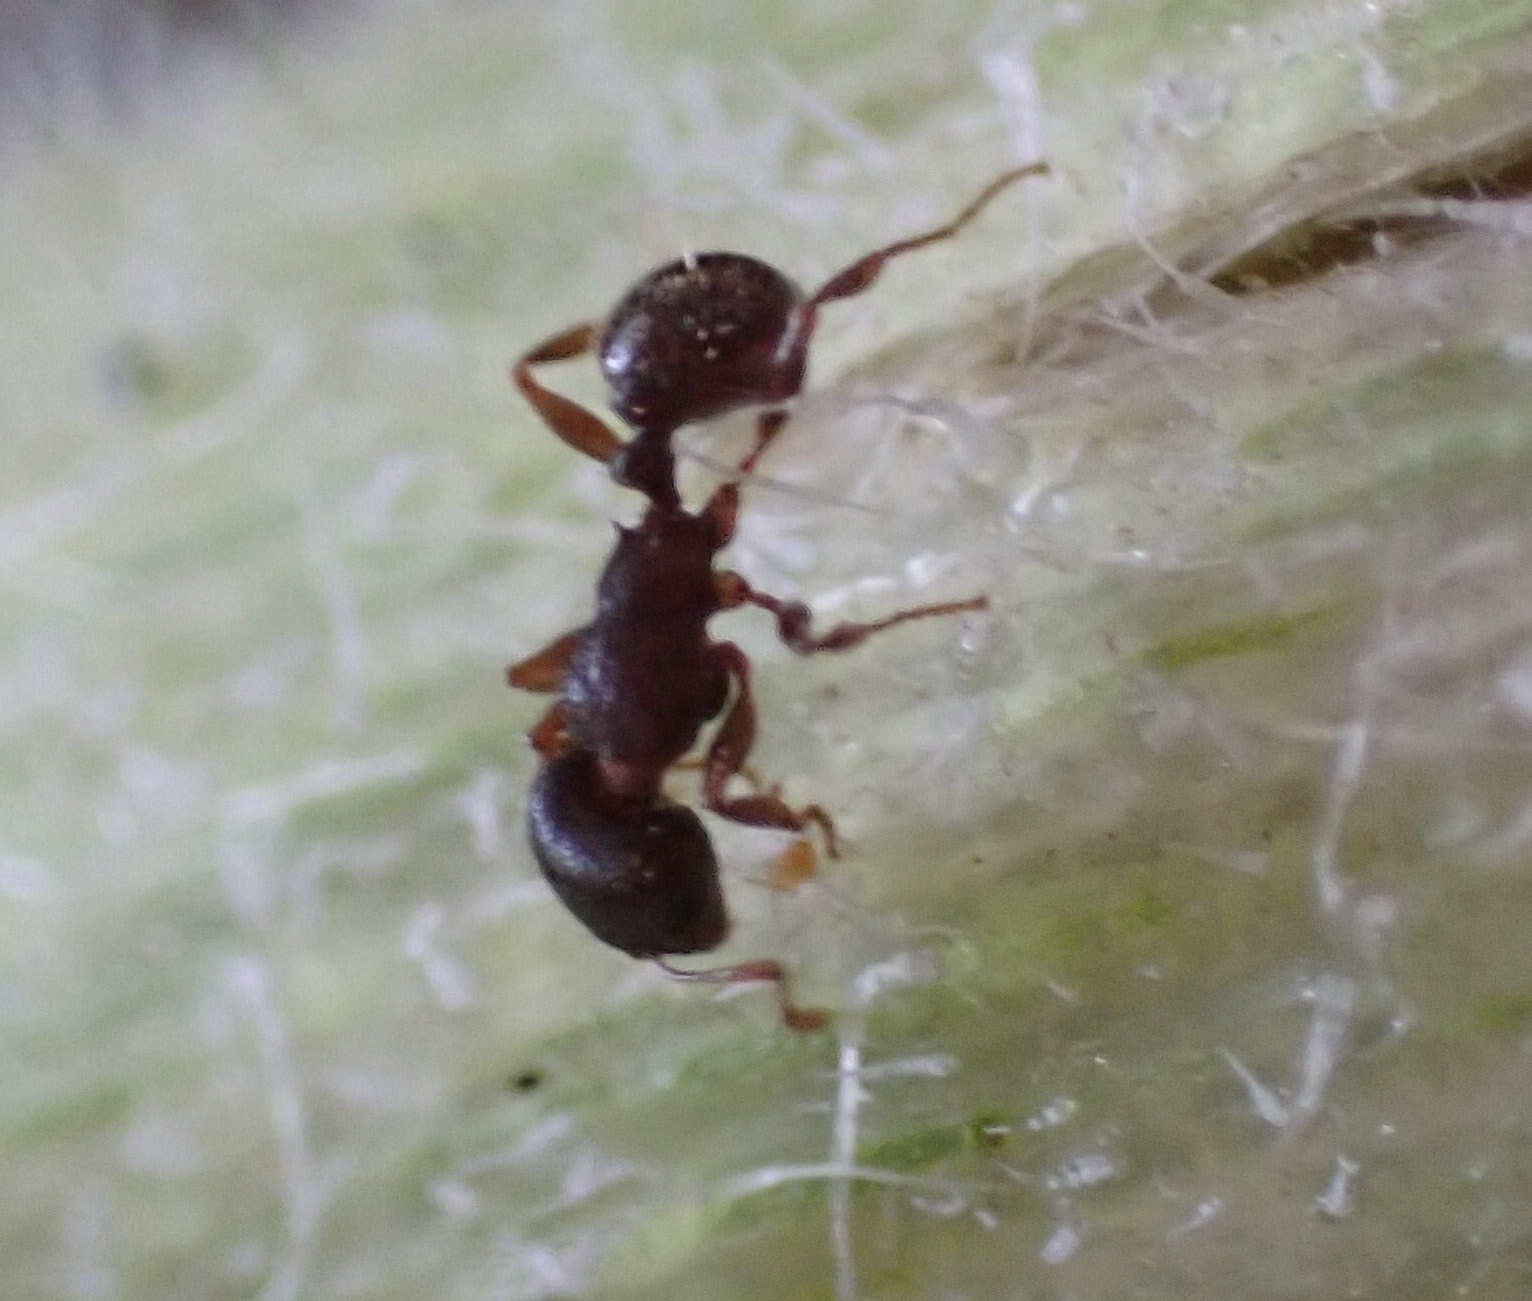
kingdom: Animalia
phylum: Arthropoda
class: Insecta
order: Hymenoptera
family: Formicidae
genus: Tetramorium
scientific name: Tetramorium immigrans
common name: Pavement ant
